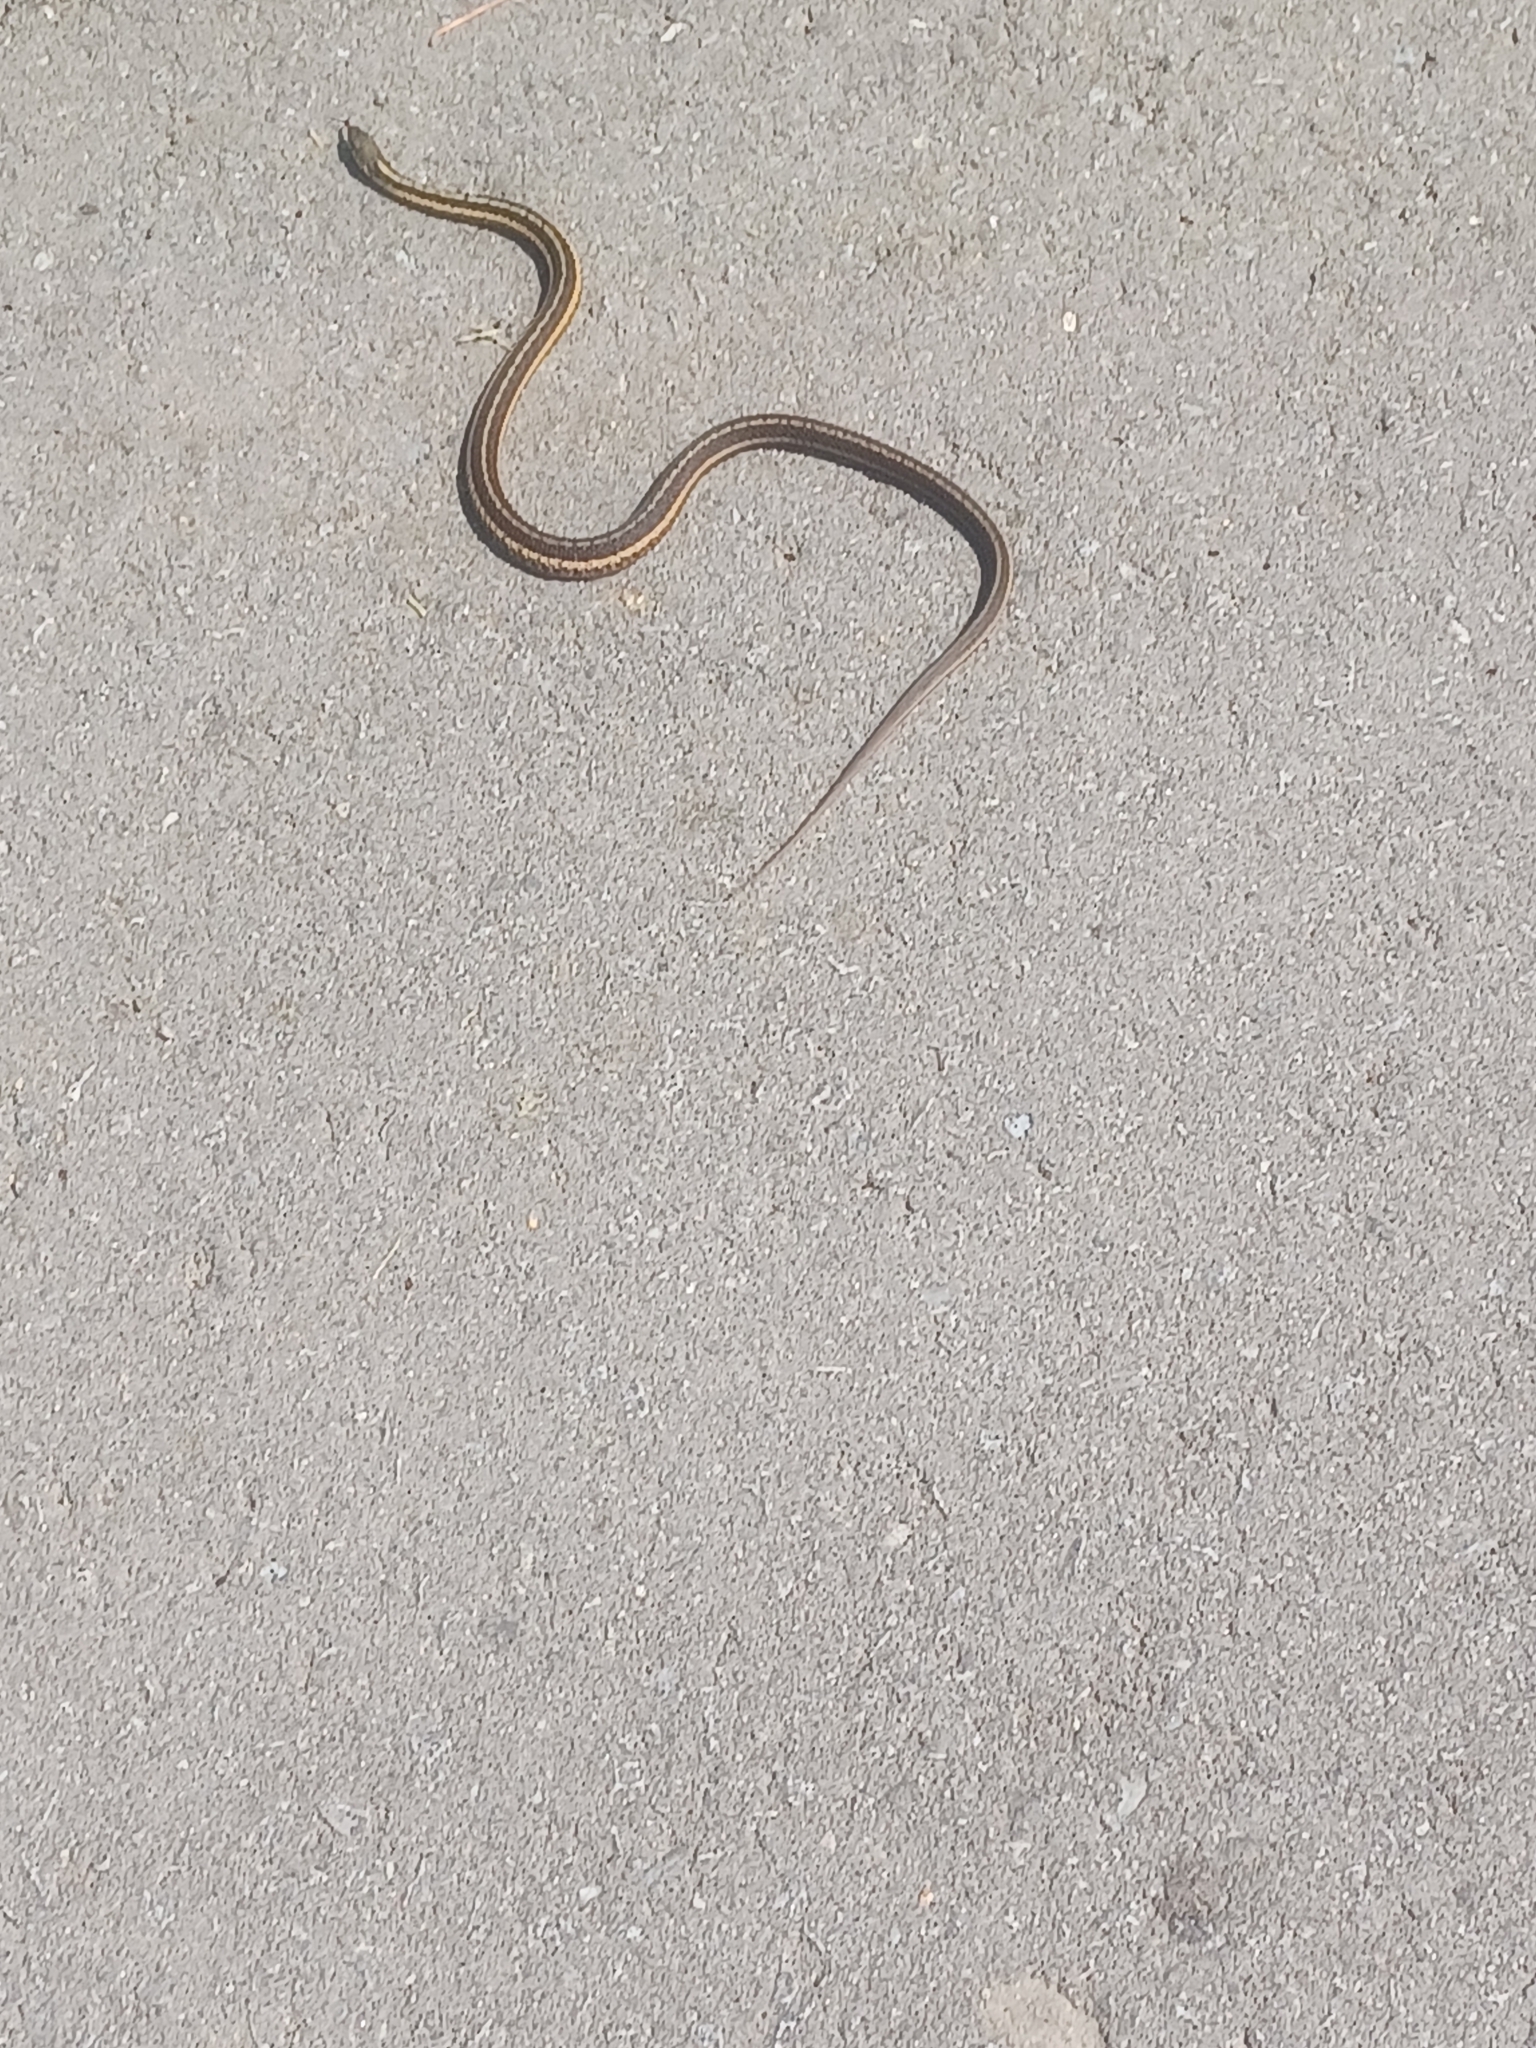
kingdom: Animalia
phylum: Chordata
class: Squamata
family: Colubridae
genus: Thamnophis
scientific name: Thamnophis sirtalis
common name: Common garter snake
